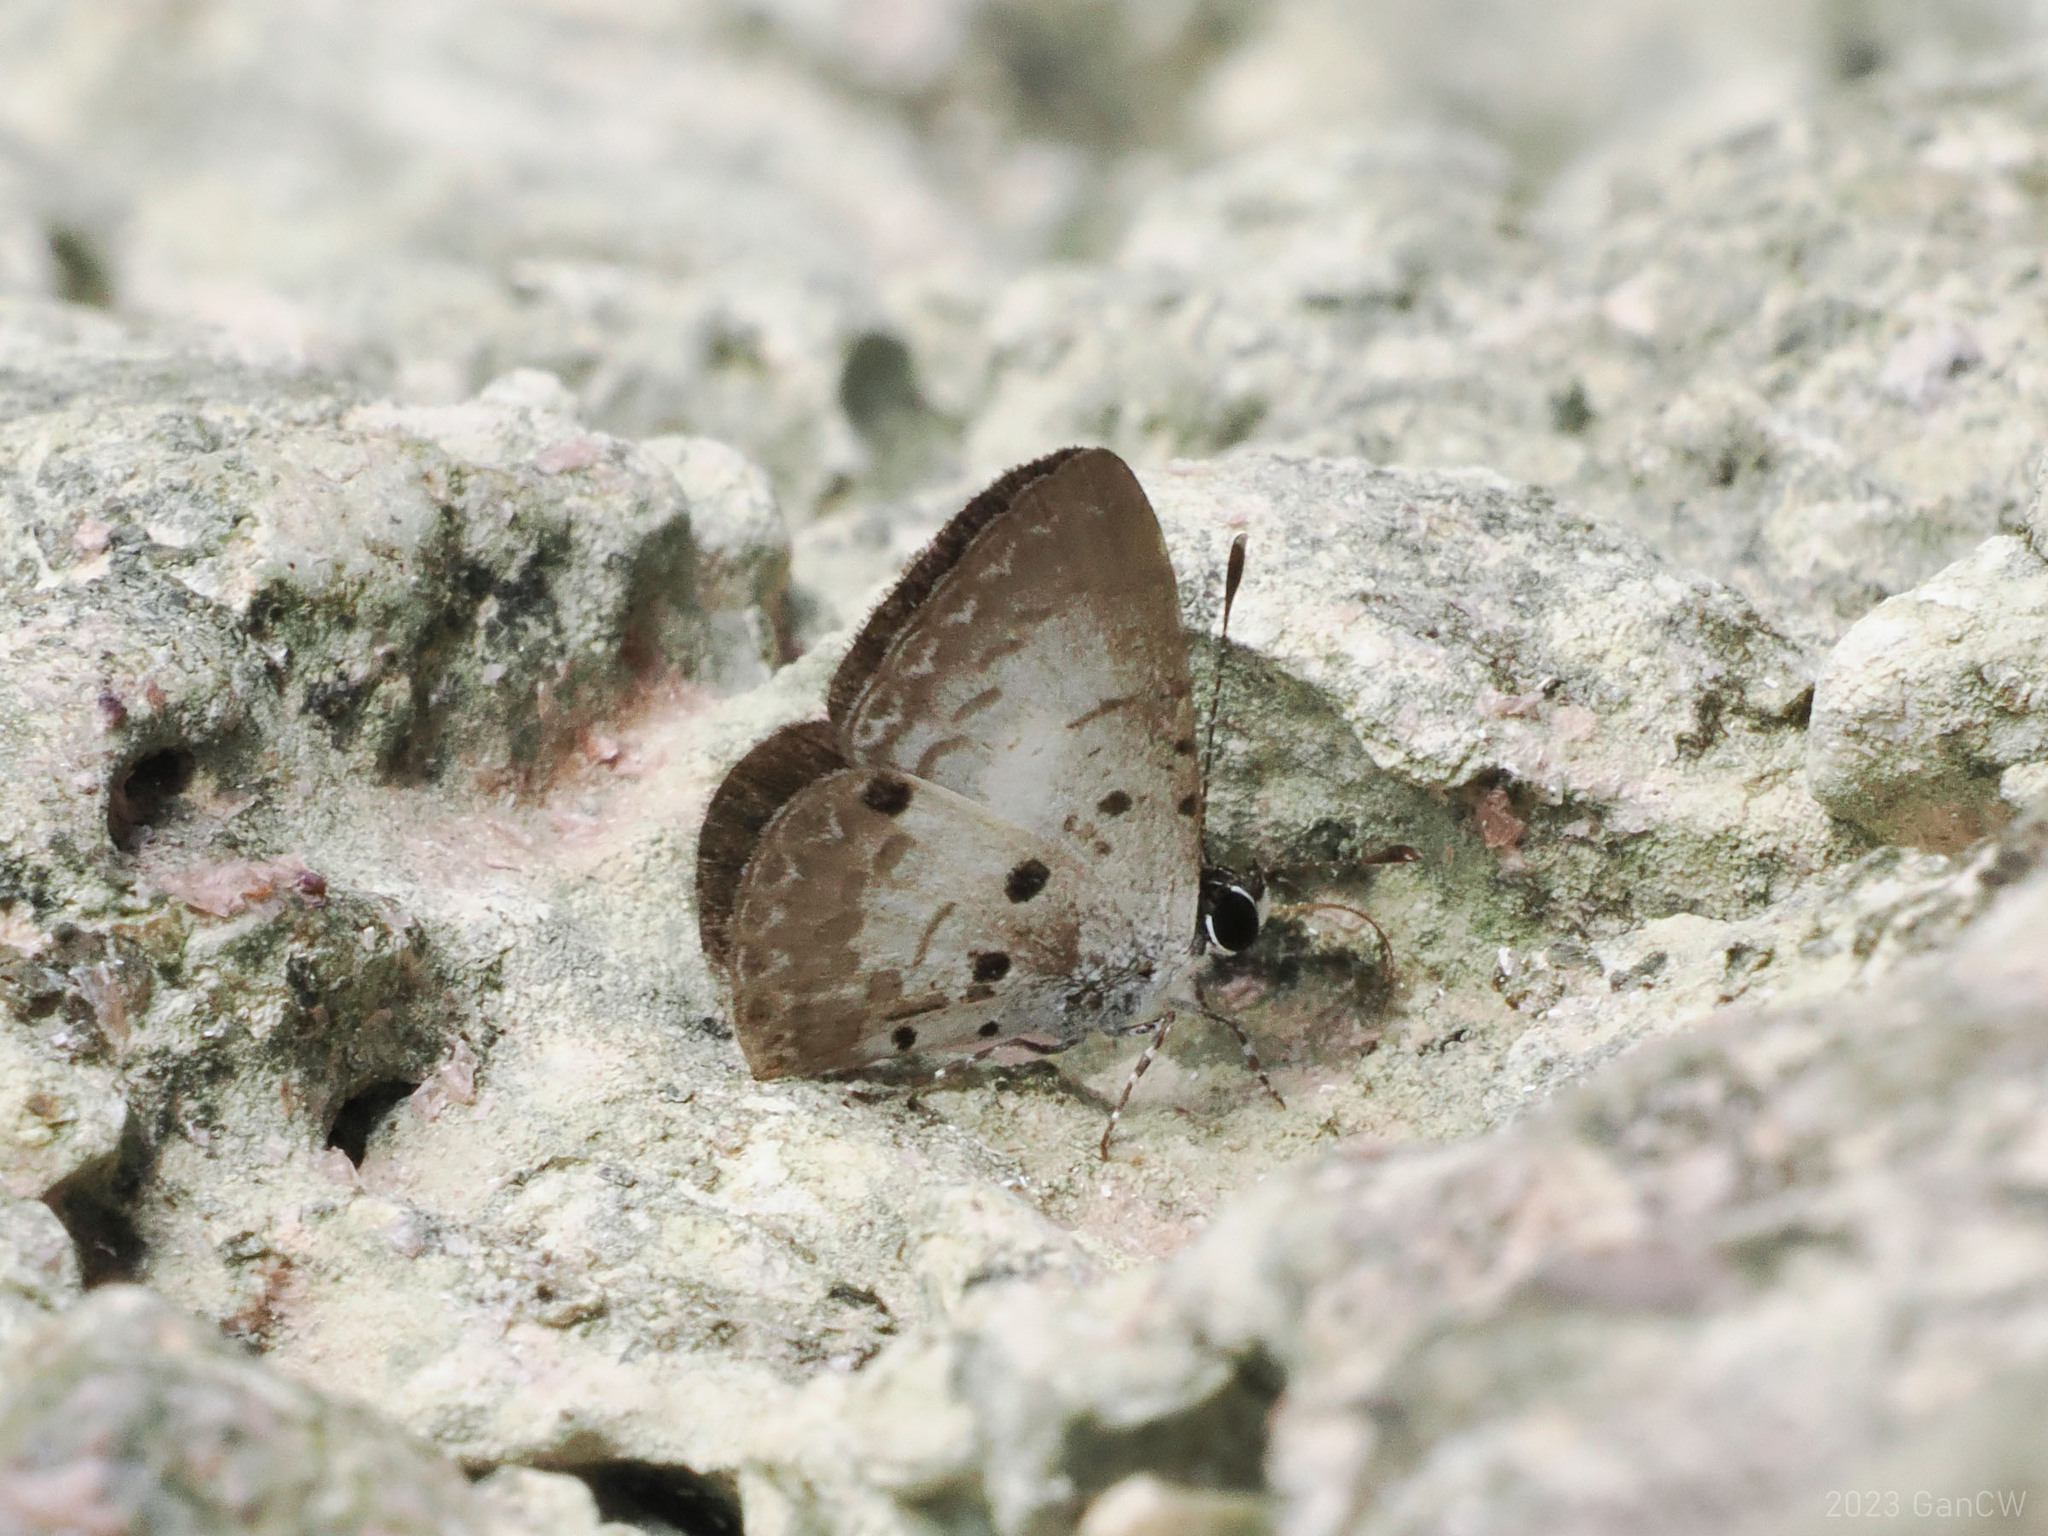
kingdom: Animalia
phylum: Arthropoda
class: Insecta
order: Lepidoptera
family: Lycaenidae
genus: Megisba
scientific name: Megisba strongyle
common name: Small pied blue
